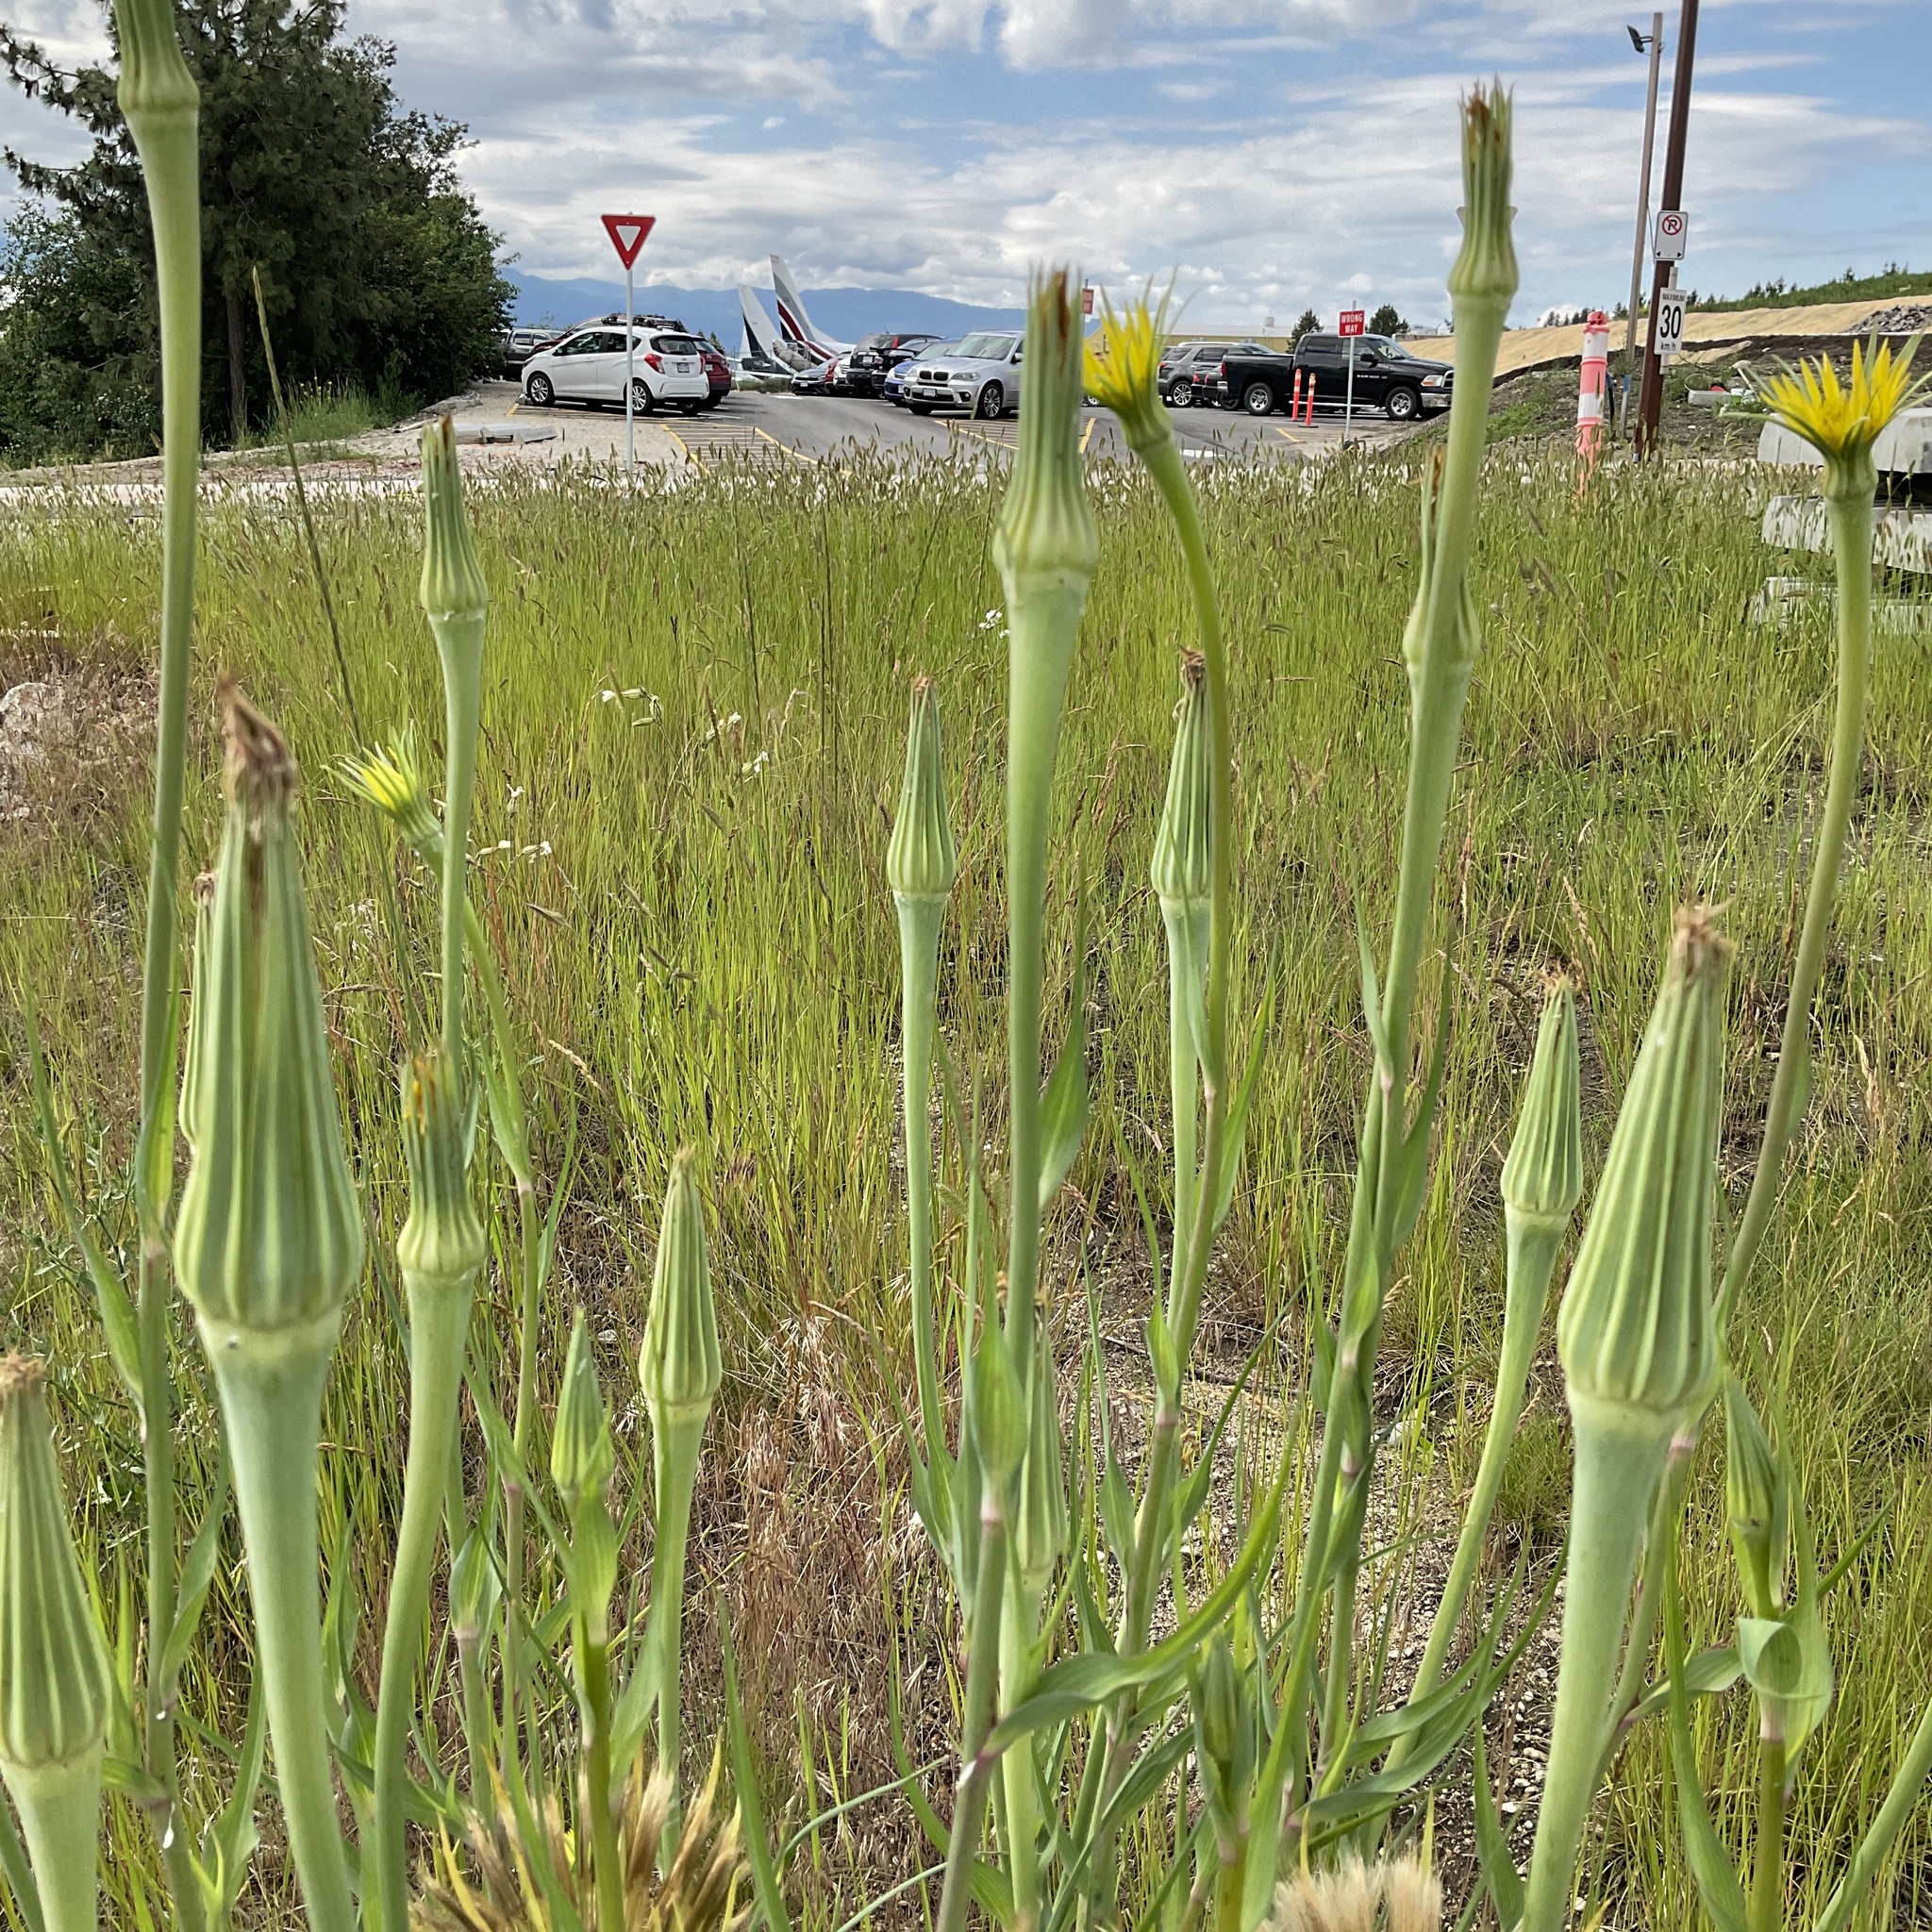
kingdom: Plantae
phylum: Tracheophyta
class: Magnoliopsida
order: Asterales
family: Asteraceae
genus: Tragopogon
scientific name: Tragopogon dubius
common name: Yellow salsify
